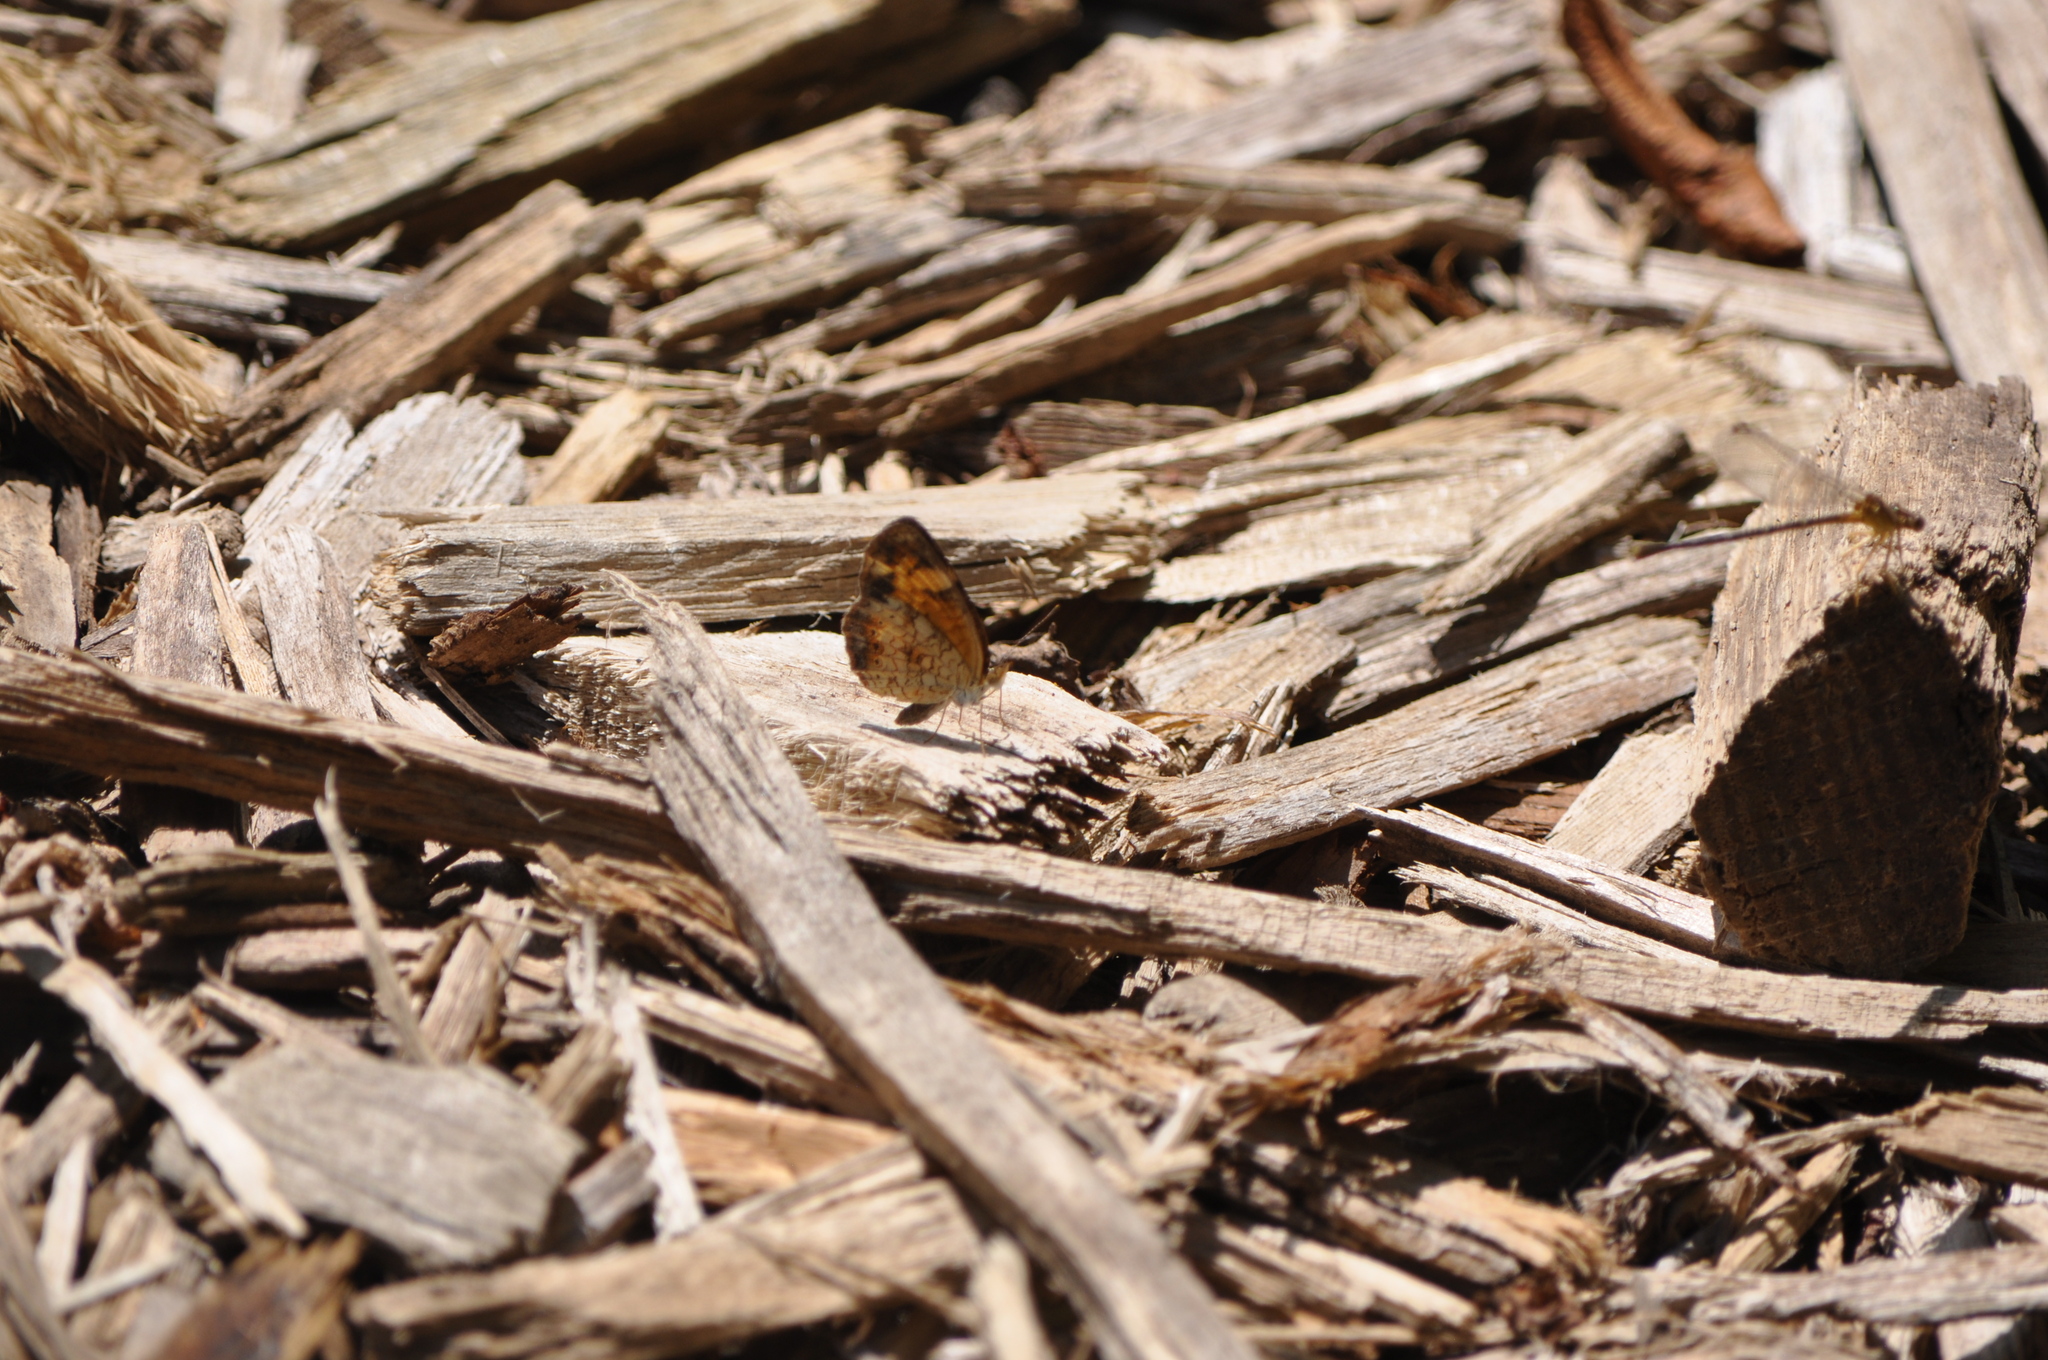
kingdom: Animalia
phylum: Arthropoda
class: Insecta
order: Lepidoptera
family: Nymphalidae
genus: Phyciodes
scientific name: Phyciodes tharos
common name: Pearl crescent
